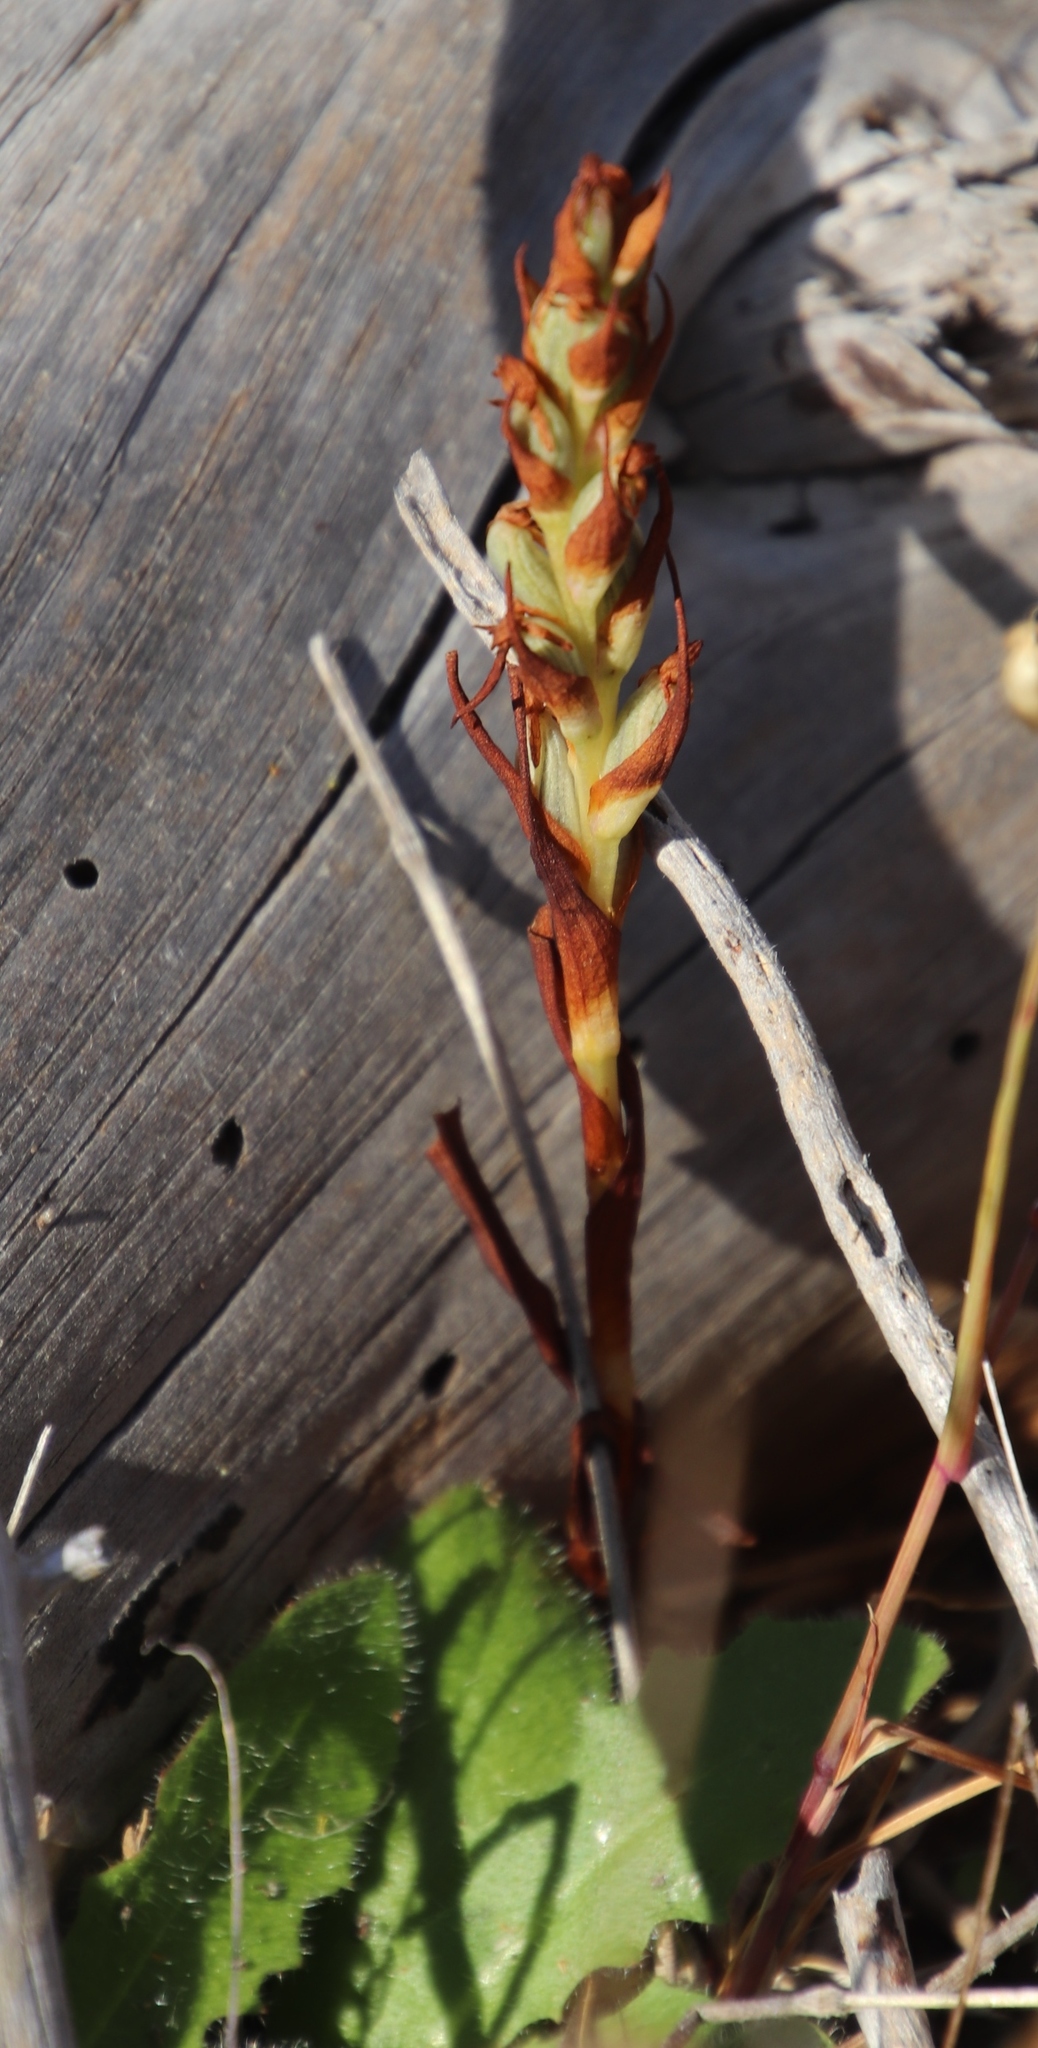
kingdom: Plantae
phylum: Tracheophyta
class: Liliopsida
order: Asparagales
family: Orchidaceae
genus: Disa
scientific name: Disa bracteata
